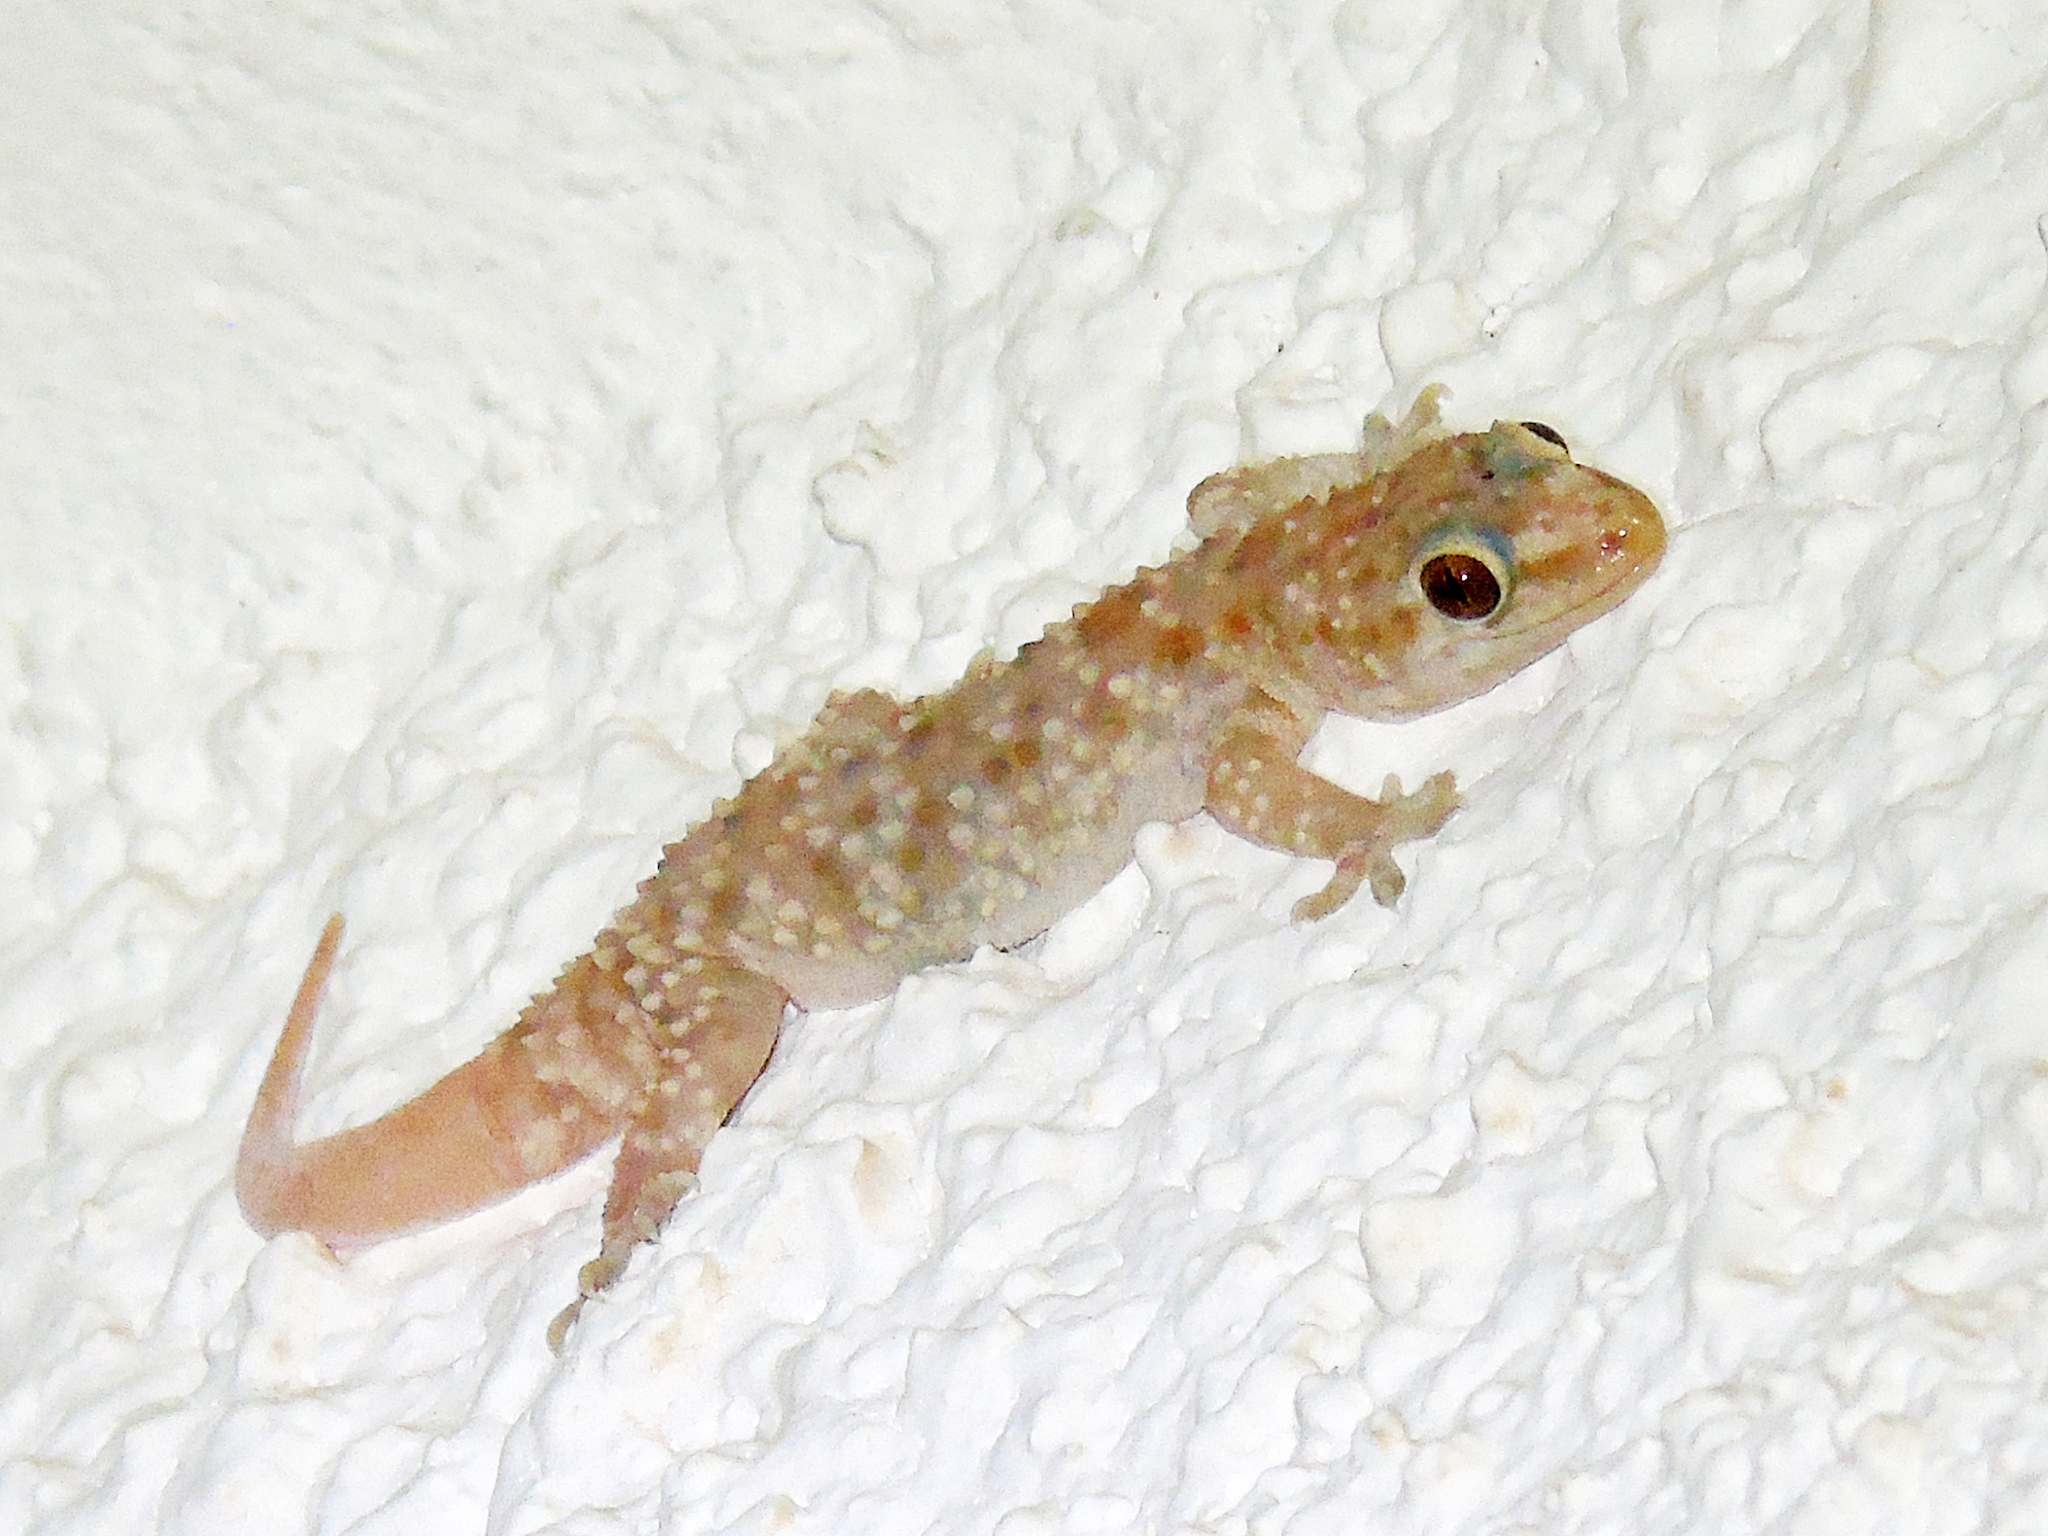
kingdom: Animalia
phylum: Chordata
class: Squamata
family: Gekkonidae
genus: Hemidactylus
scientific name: Hemidactylus turcicus
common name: Turkish gecko
